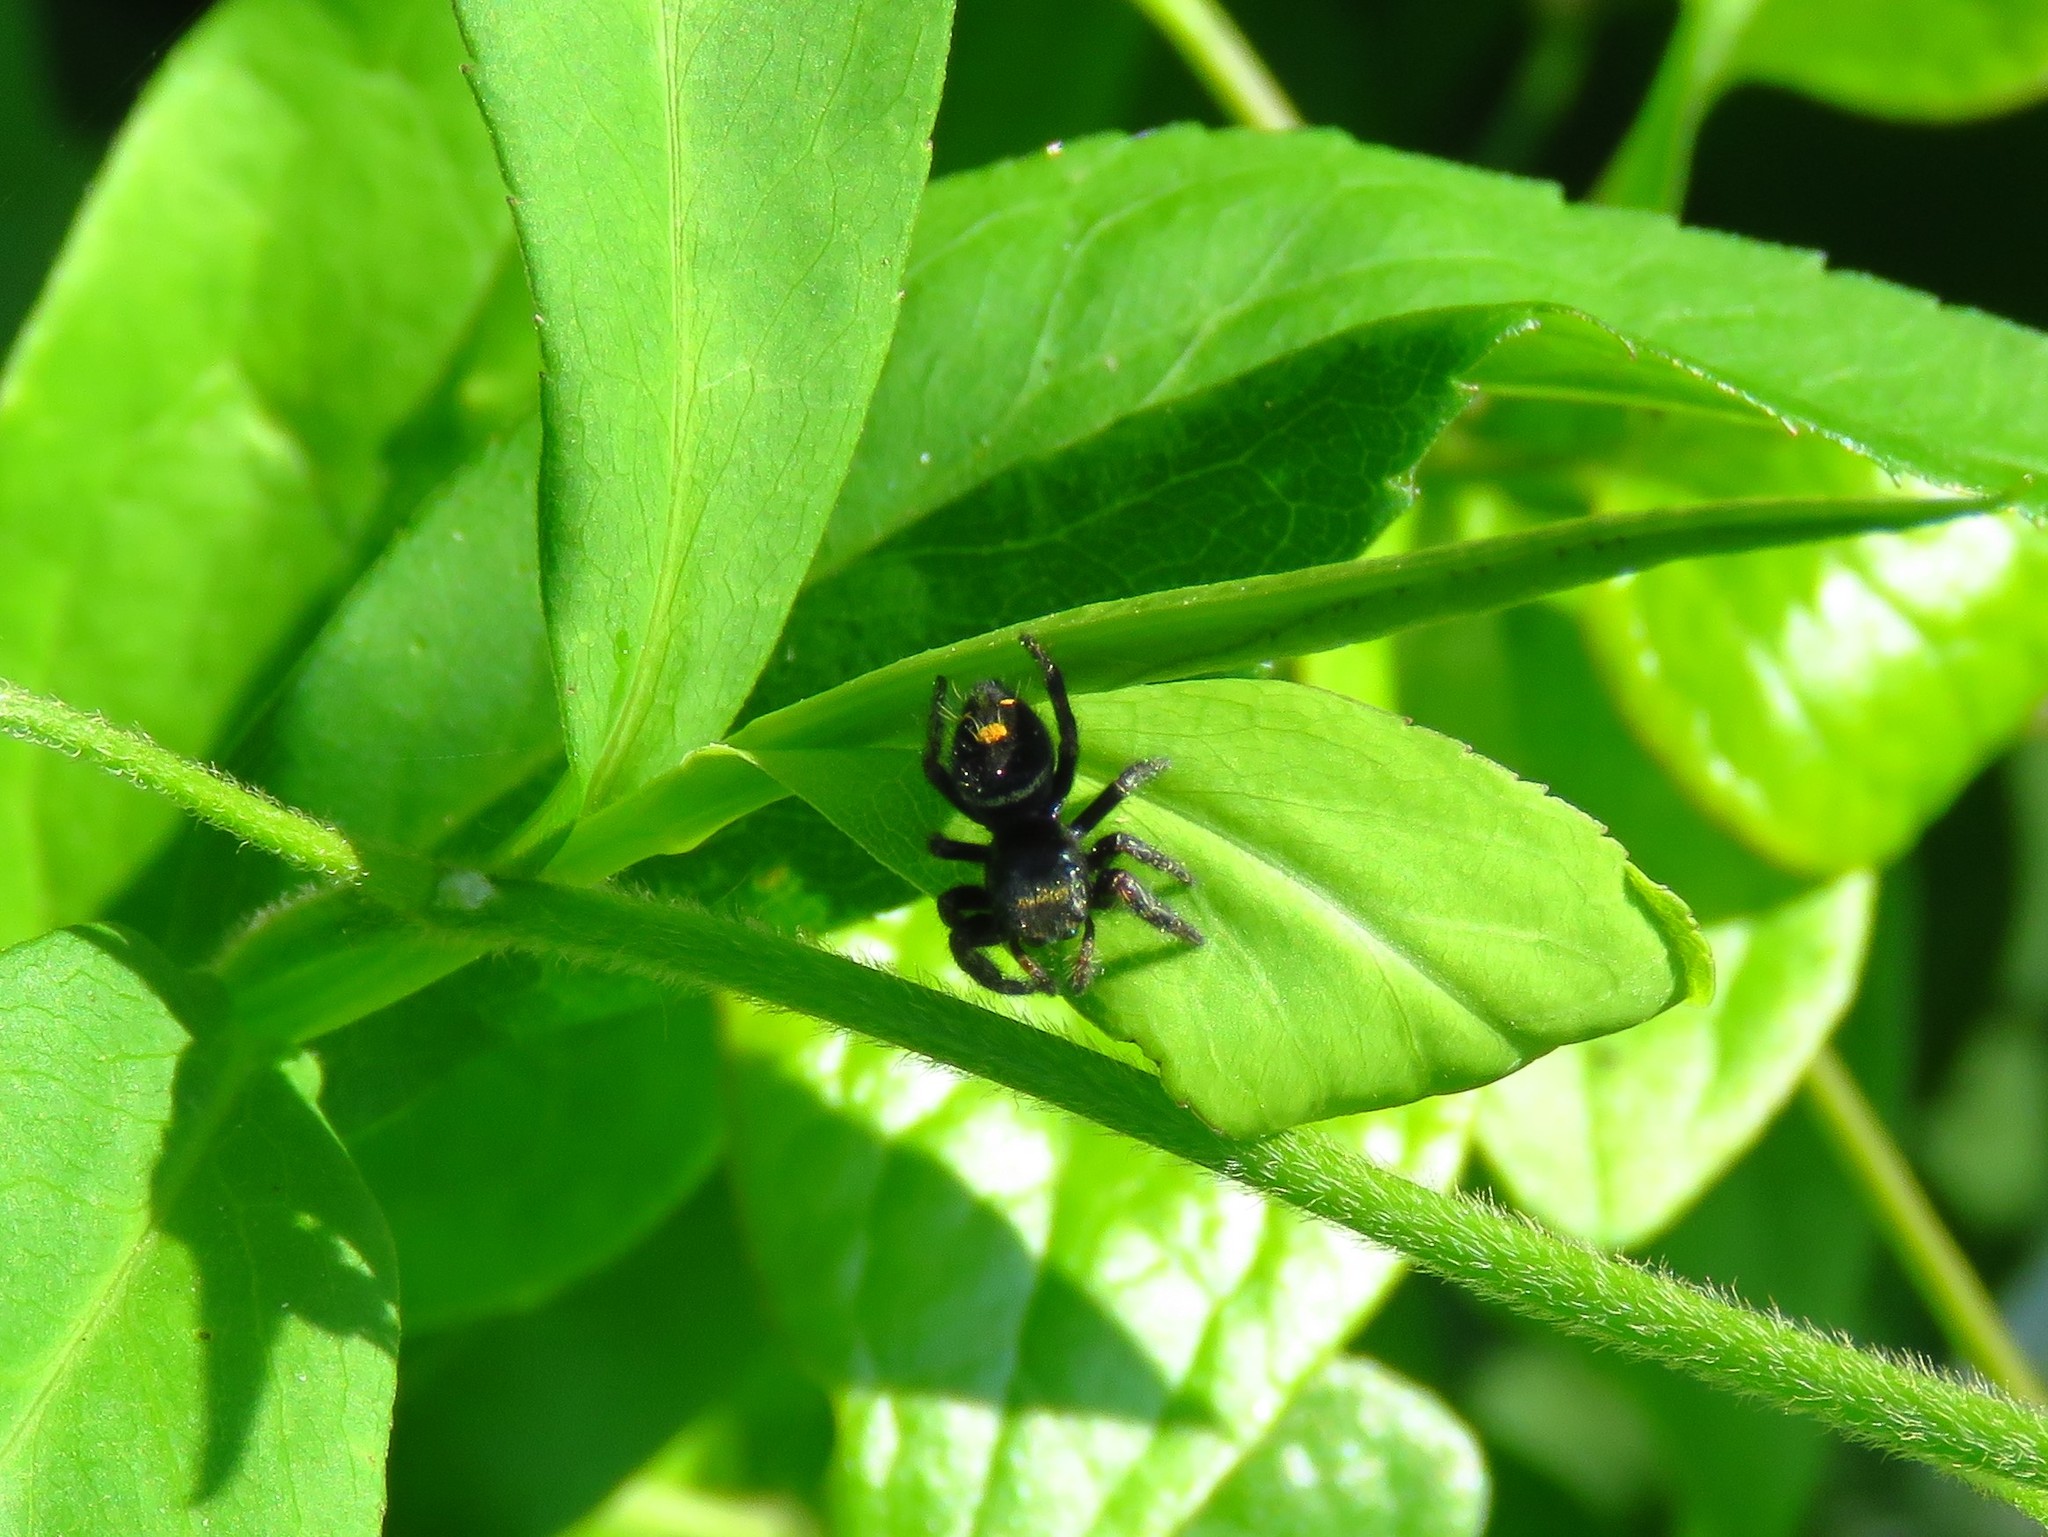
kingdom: Animalia
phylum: Arthropoda
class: Arachnida
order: Araneae
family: Salticidae
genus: Phidippus
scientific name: Phidippus audax
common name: Bold jumper
